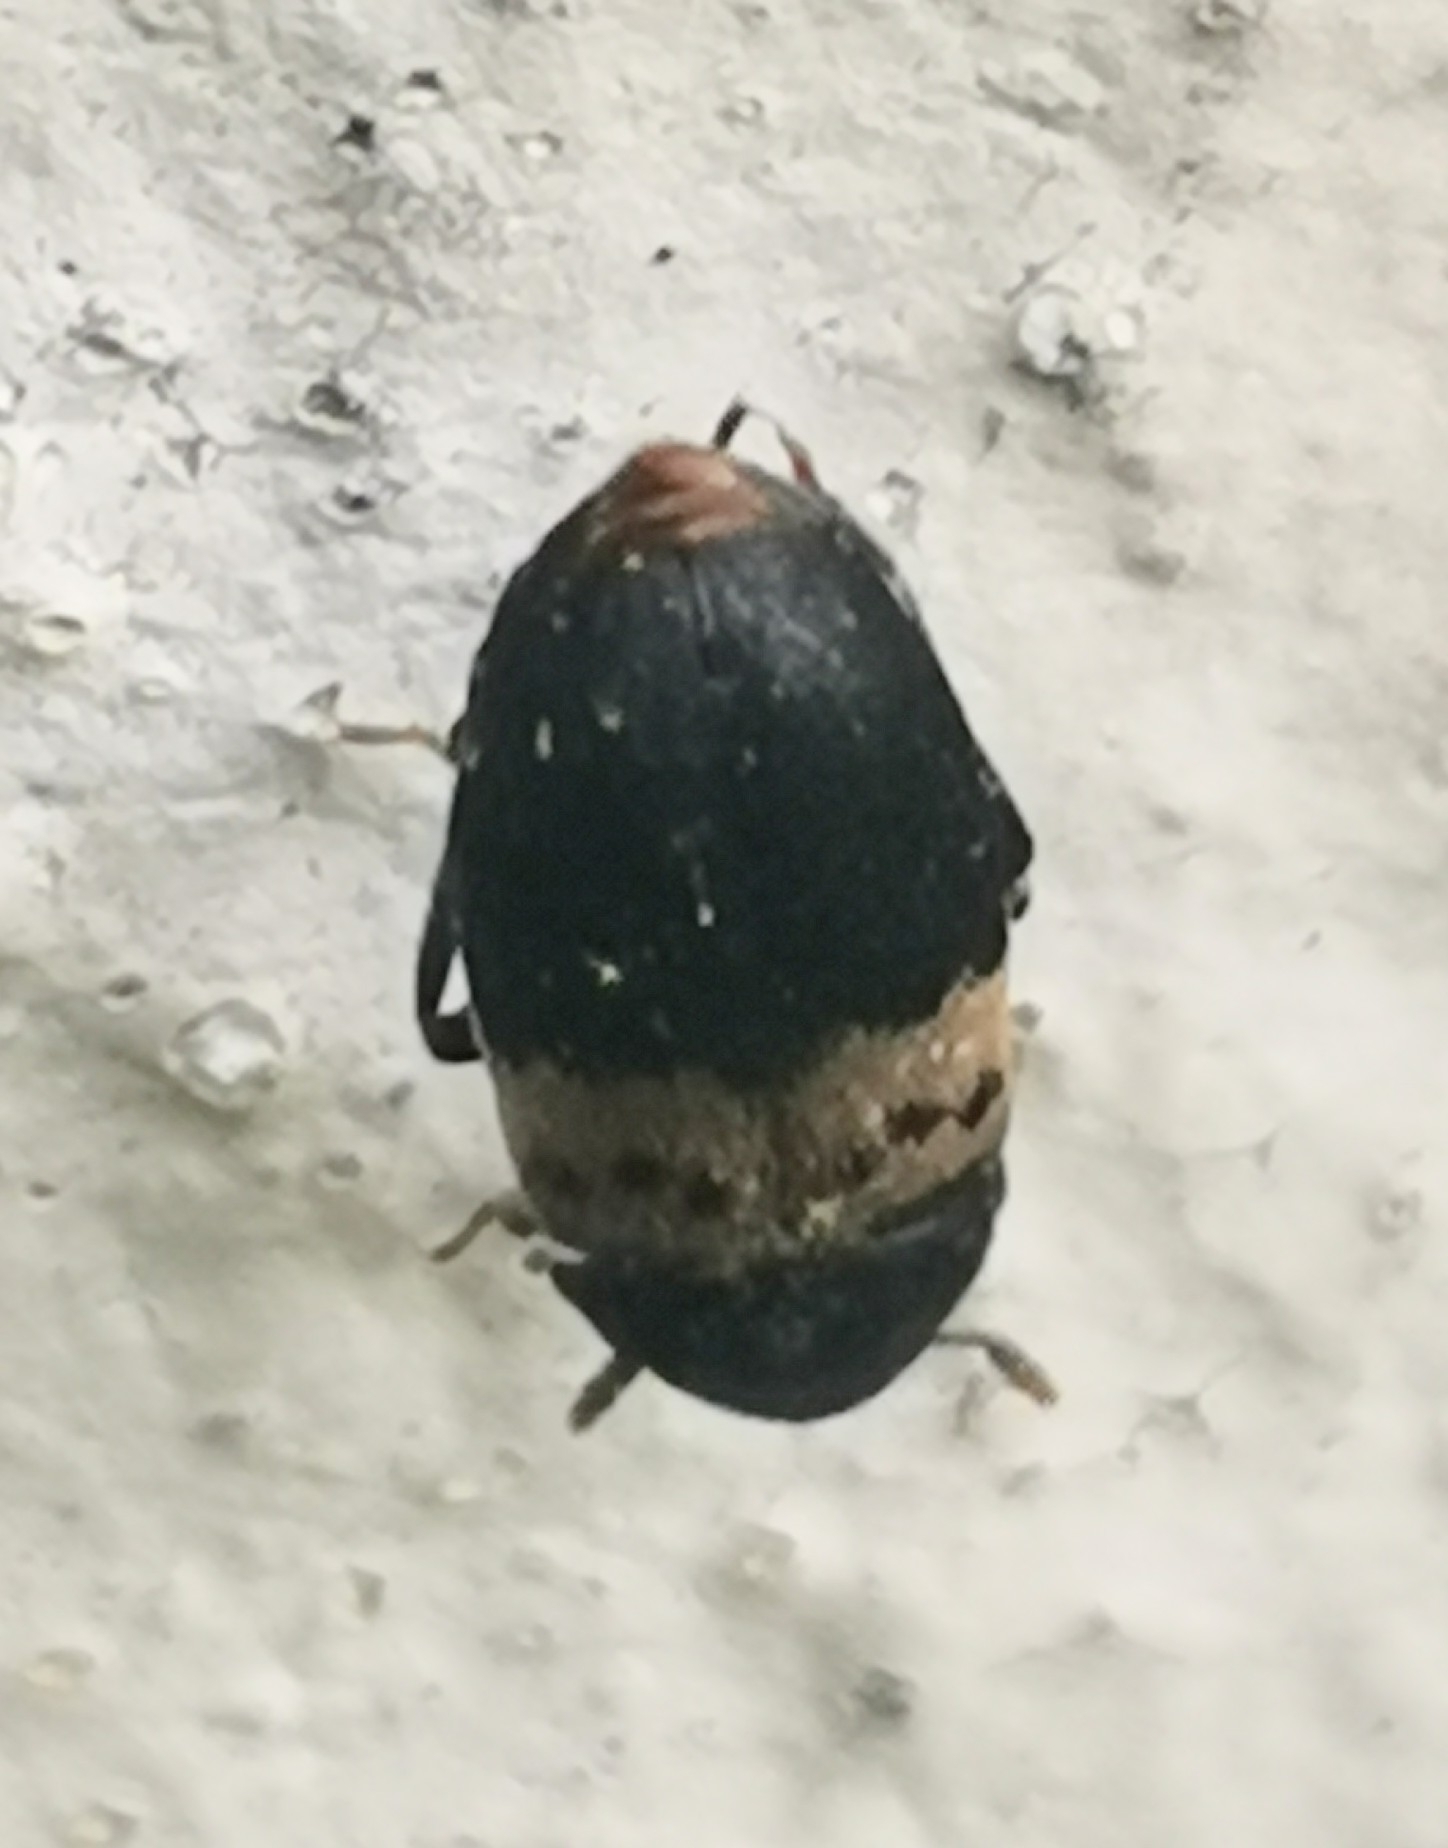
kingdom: Animalia
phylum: Arthropoda
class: Insecta
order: Coleoptera
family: Dermestidae
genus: Dermestes
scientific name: Dermestes lardarius
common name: Larder beetle
